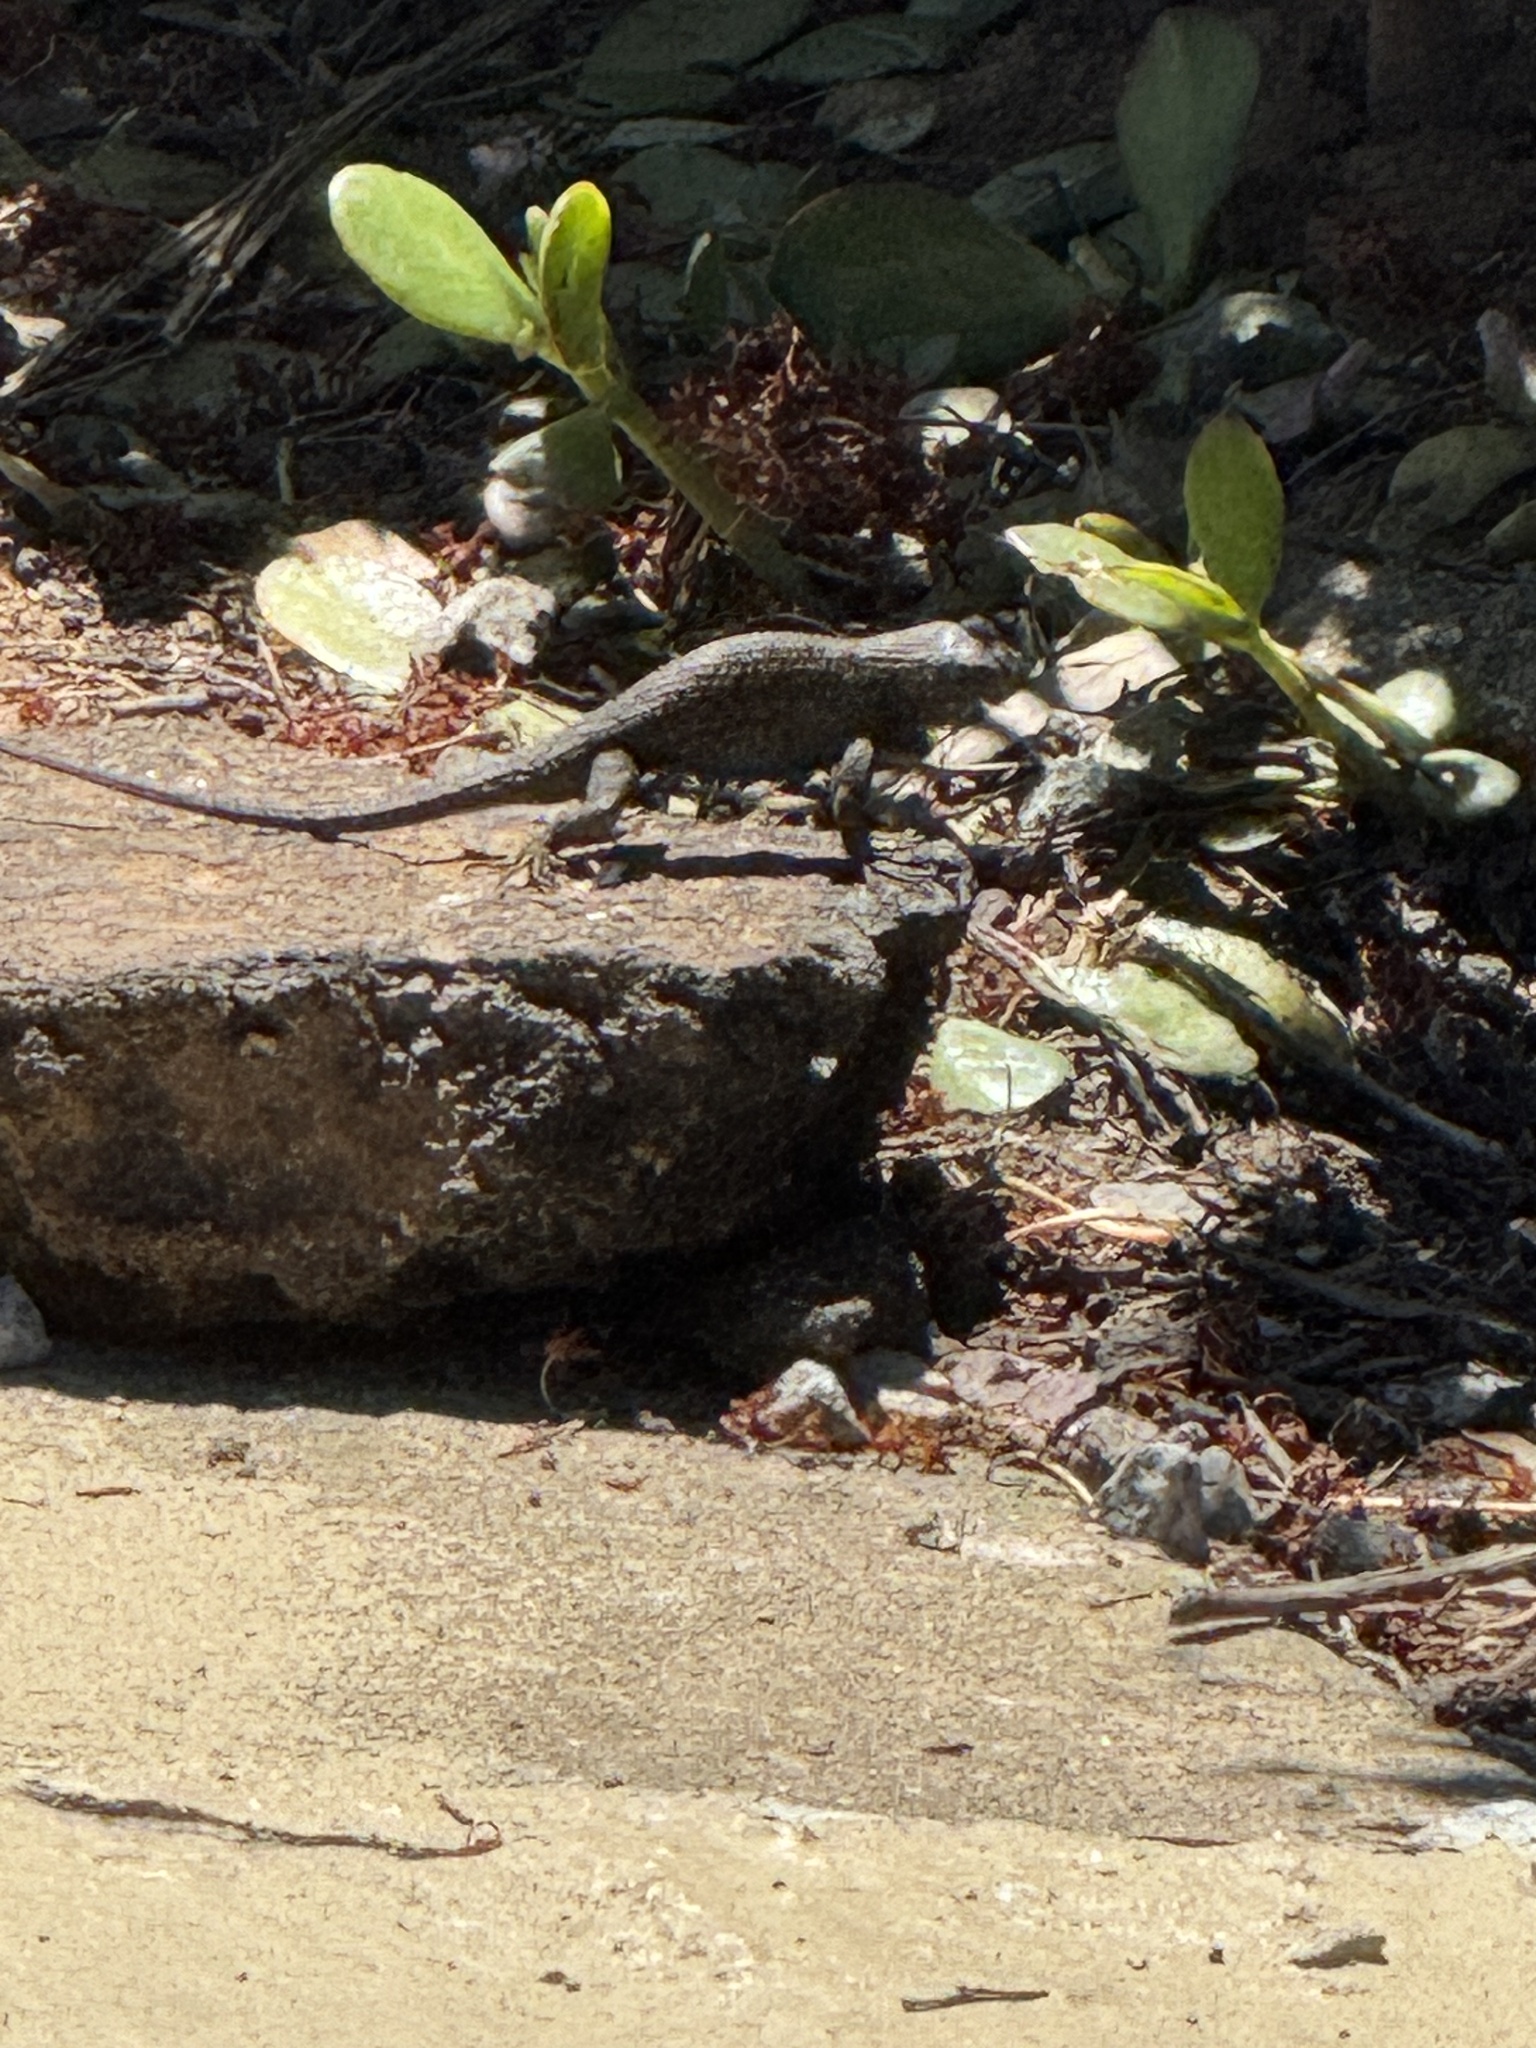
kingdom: Animalia
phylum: Chordata
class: Squamata
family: Phrynosomatidae
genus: Sceloporus
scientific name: Sceloporus occidentalis
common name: Western fence lizard
